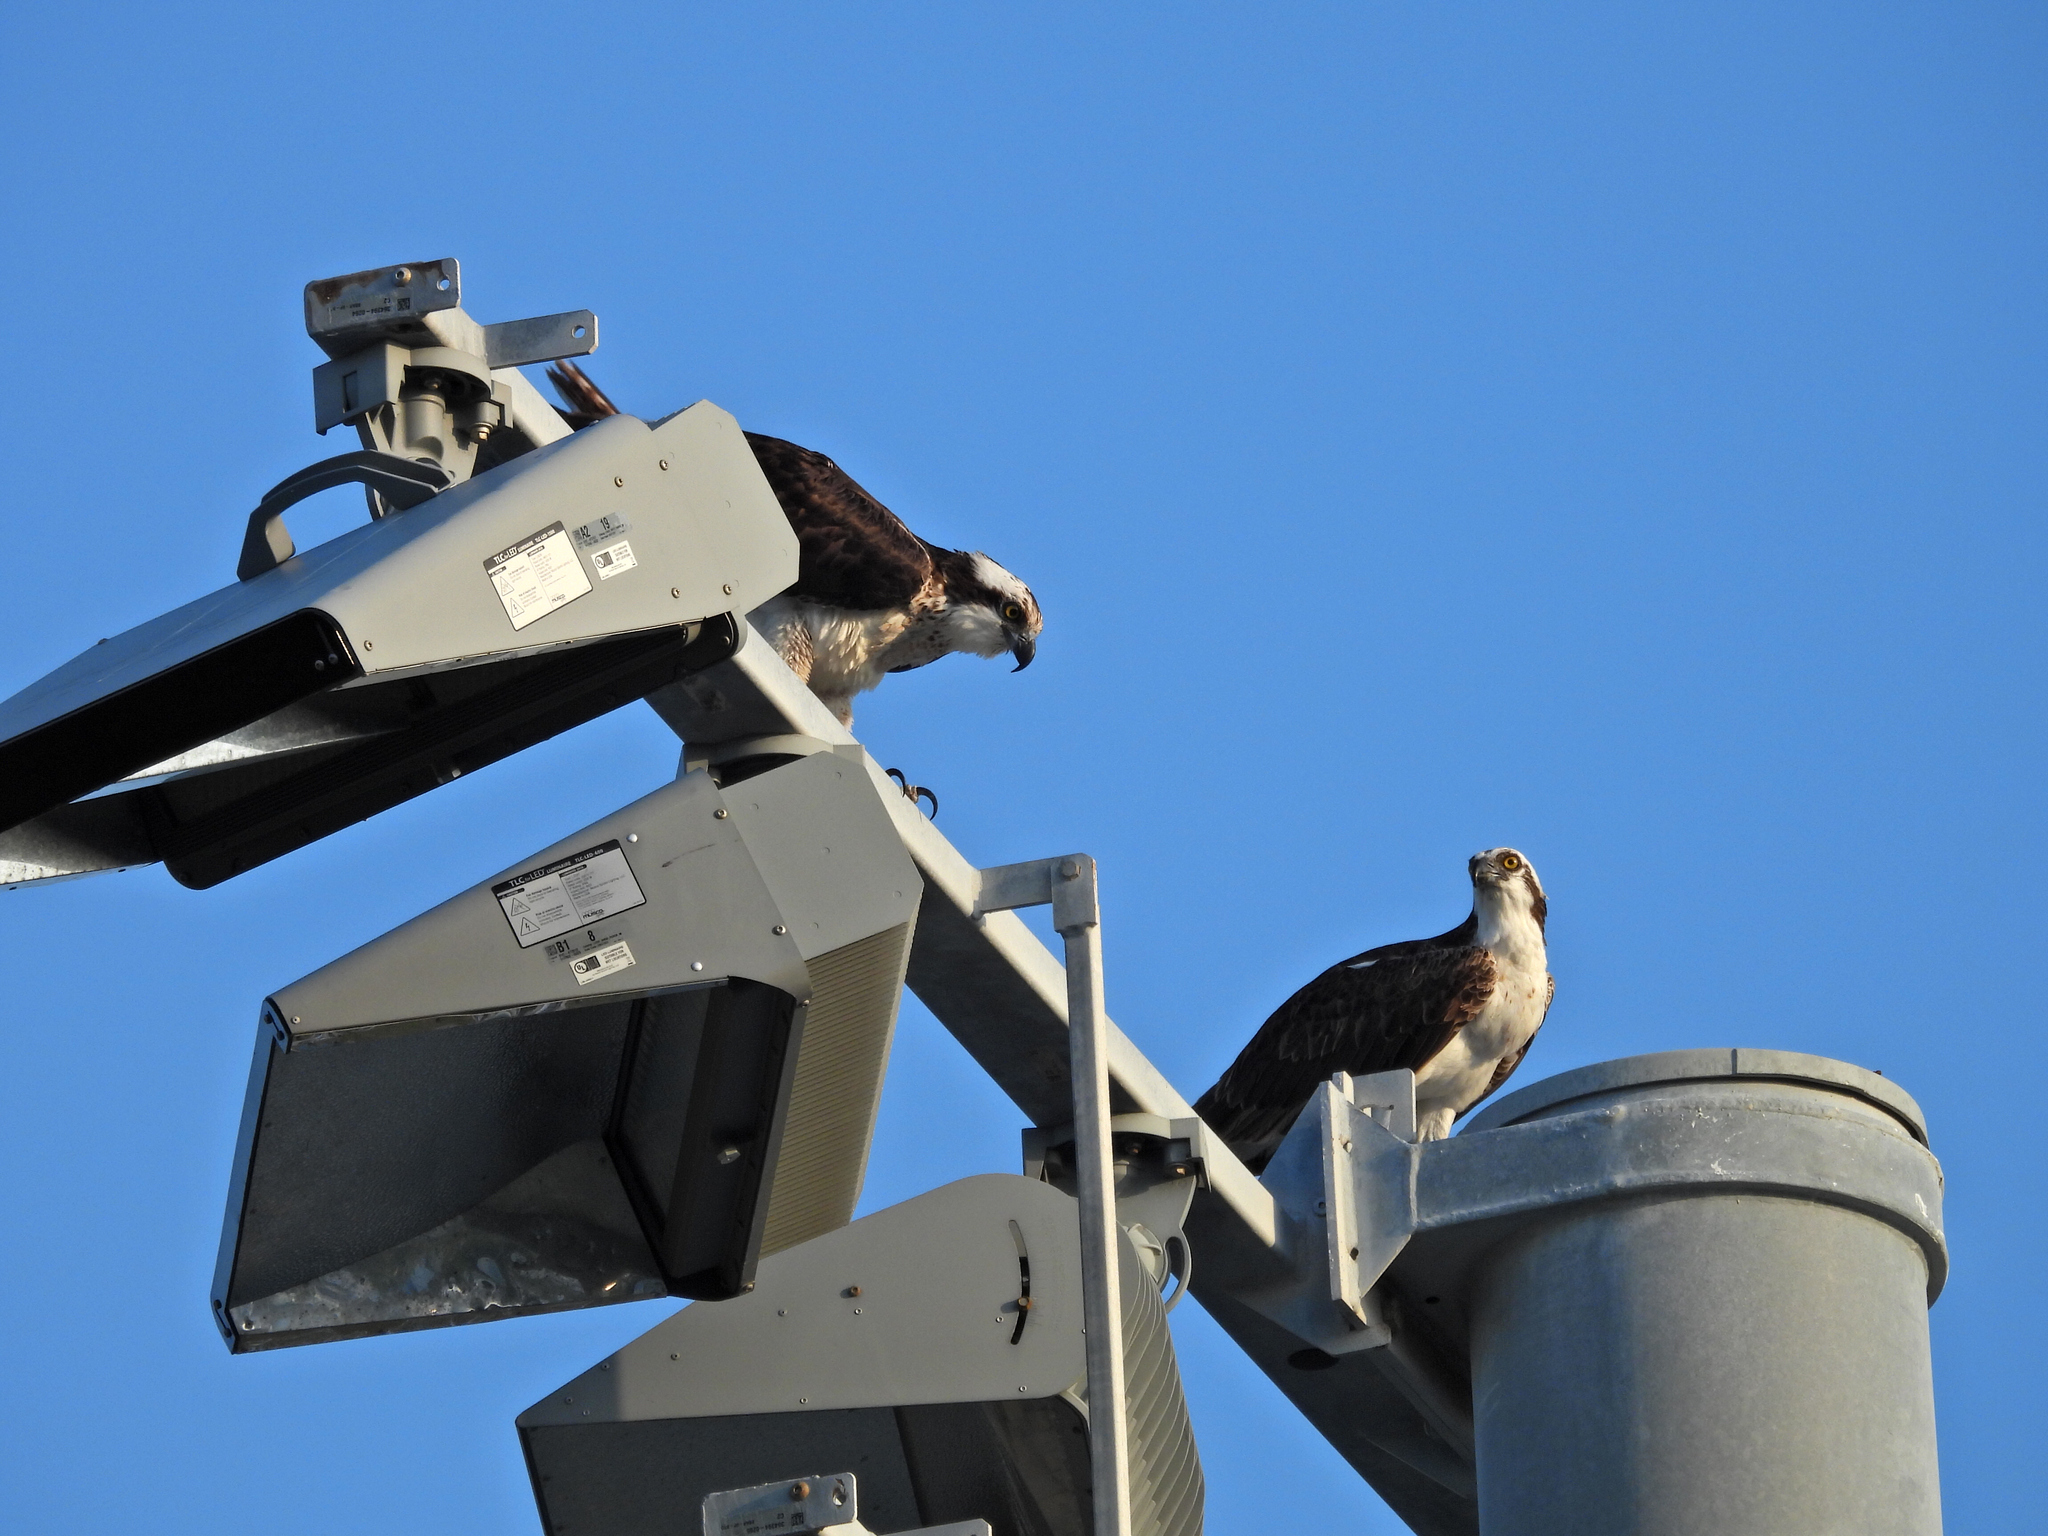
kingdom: Animalia
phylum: Chordata
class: Aves
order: Accipitriformes
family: Pandionidae
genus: Pandion
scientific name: Pandion haliaetus
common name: Osprey
